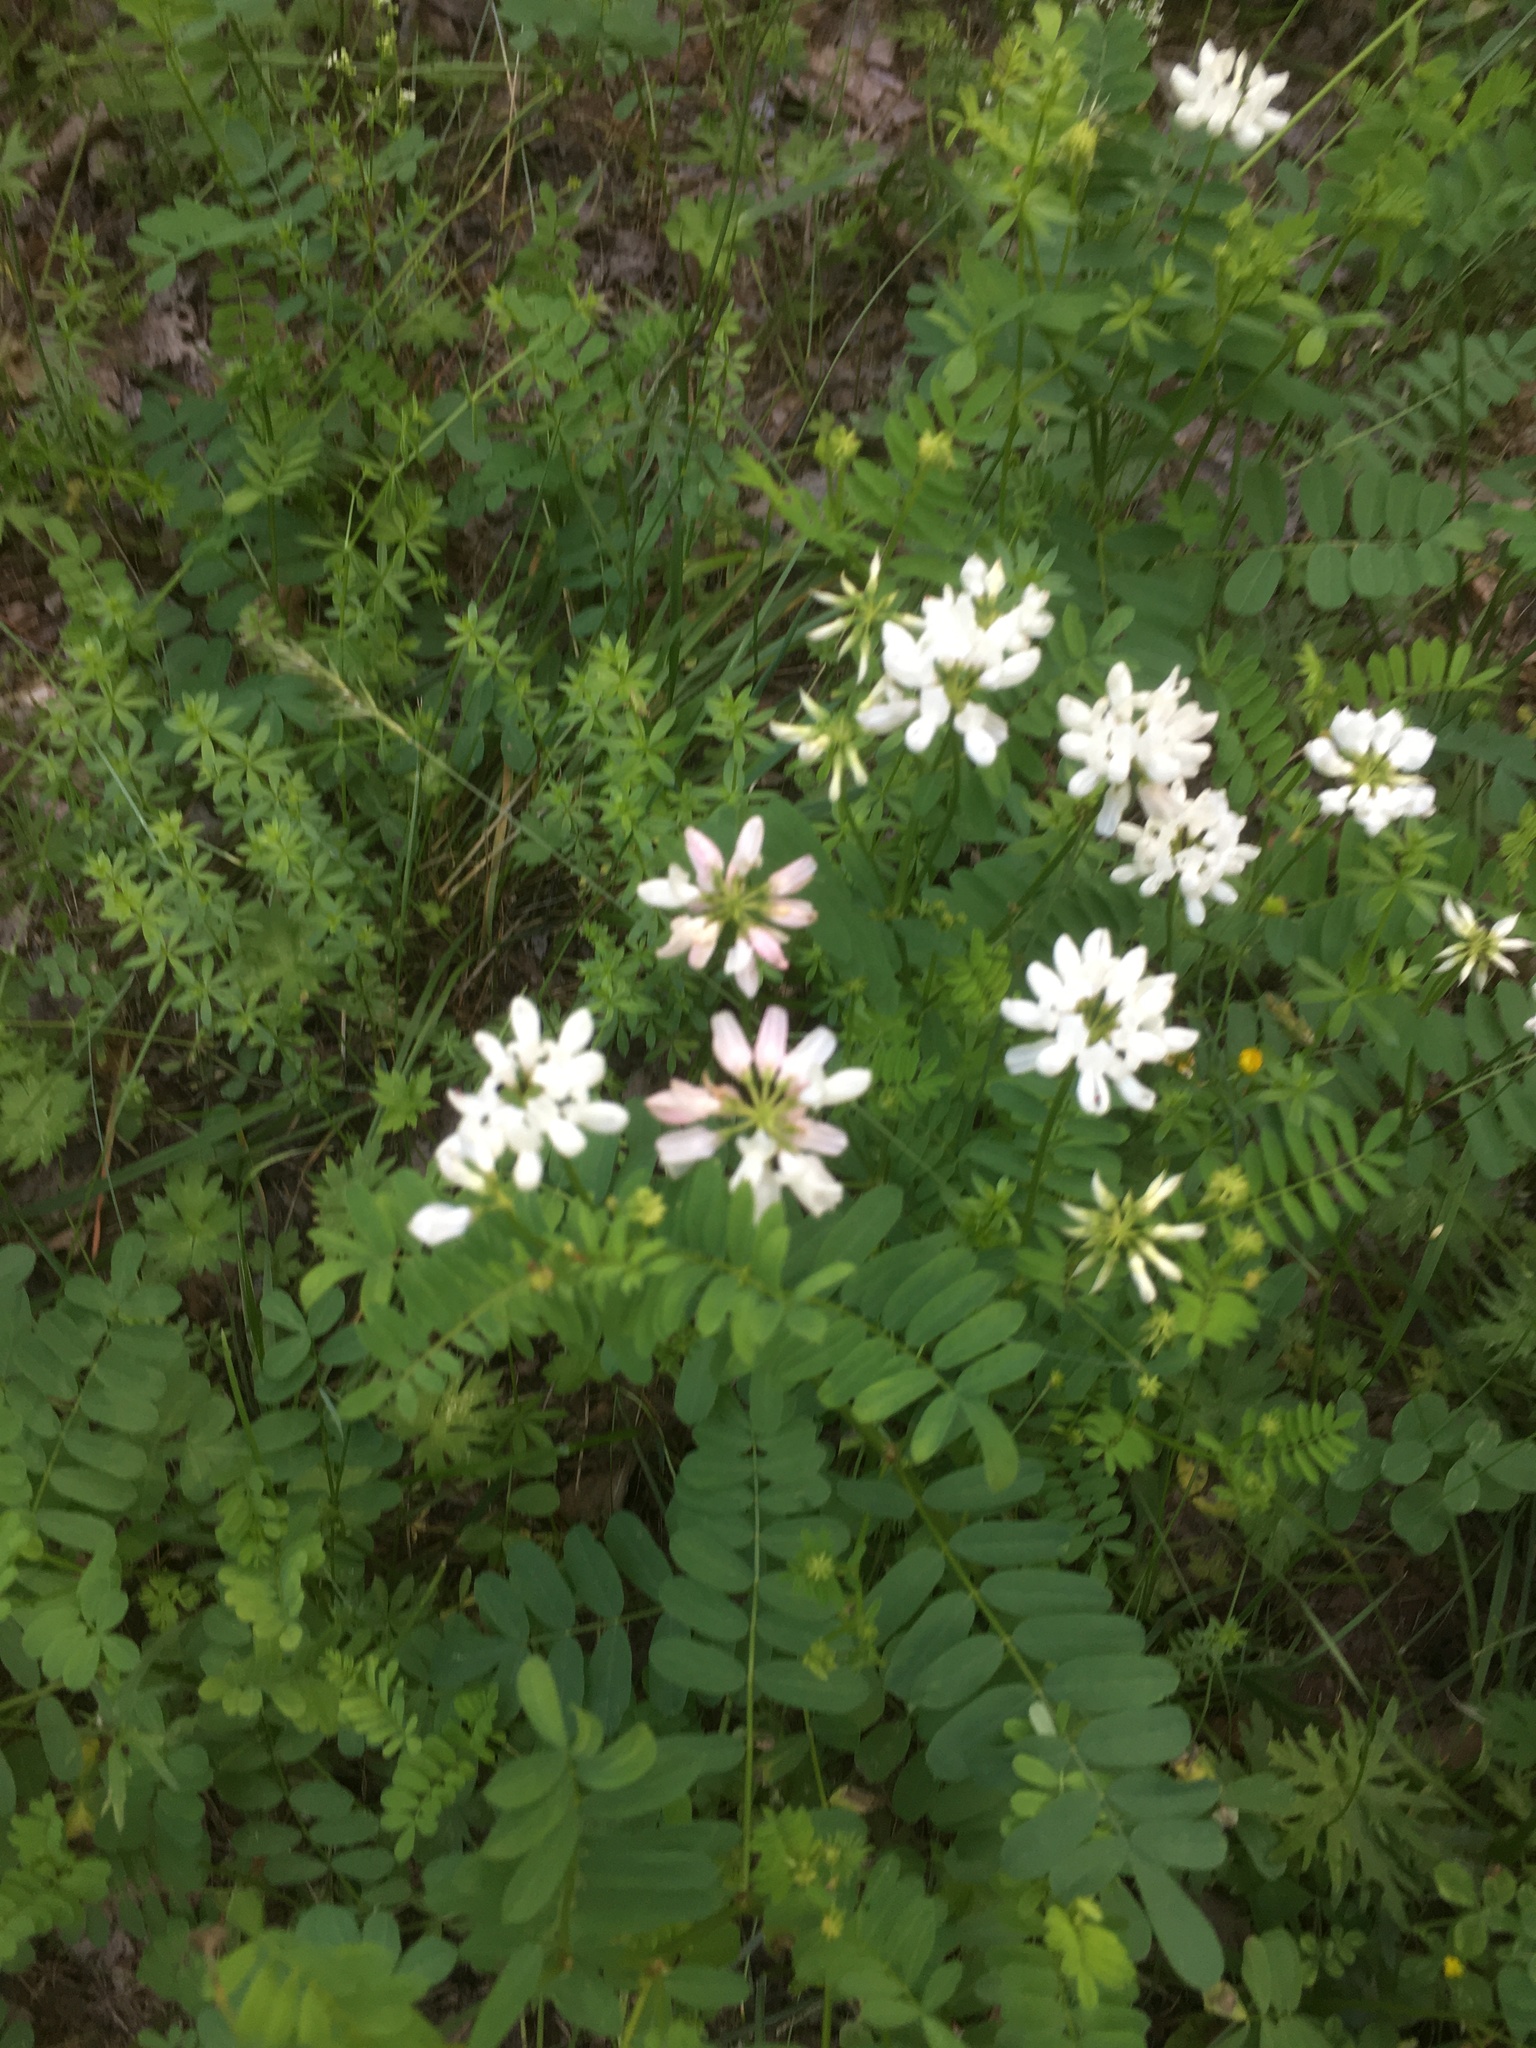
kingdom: Plantae
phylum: Tracheophyta
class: Magnoliopsida
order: Fabales
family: Fabaceae
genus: Coronilla
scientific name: Coronilla varia
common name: Crownvetch
